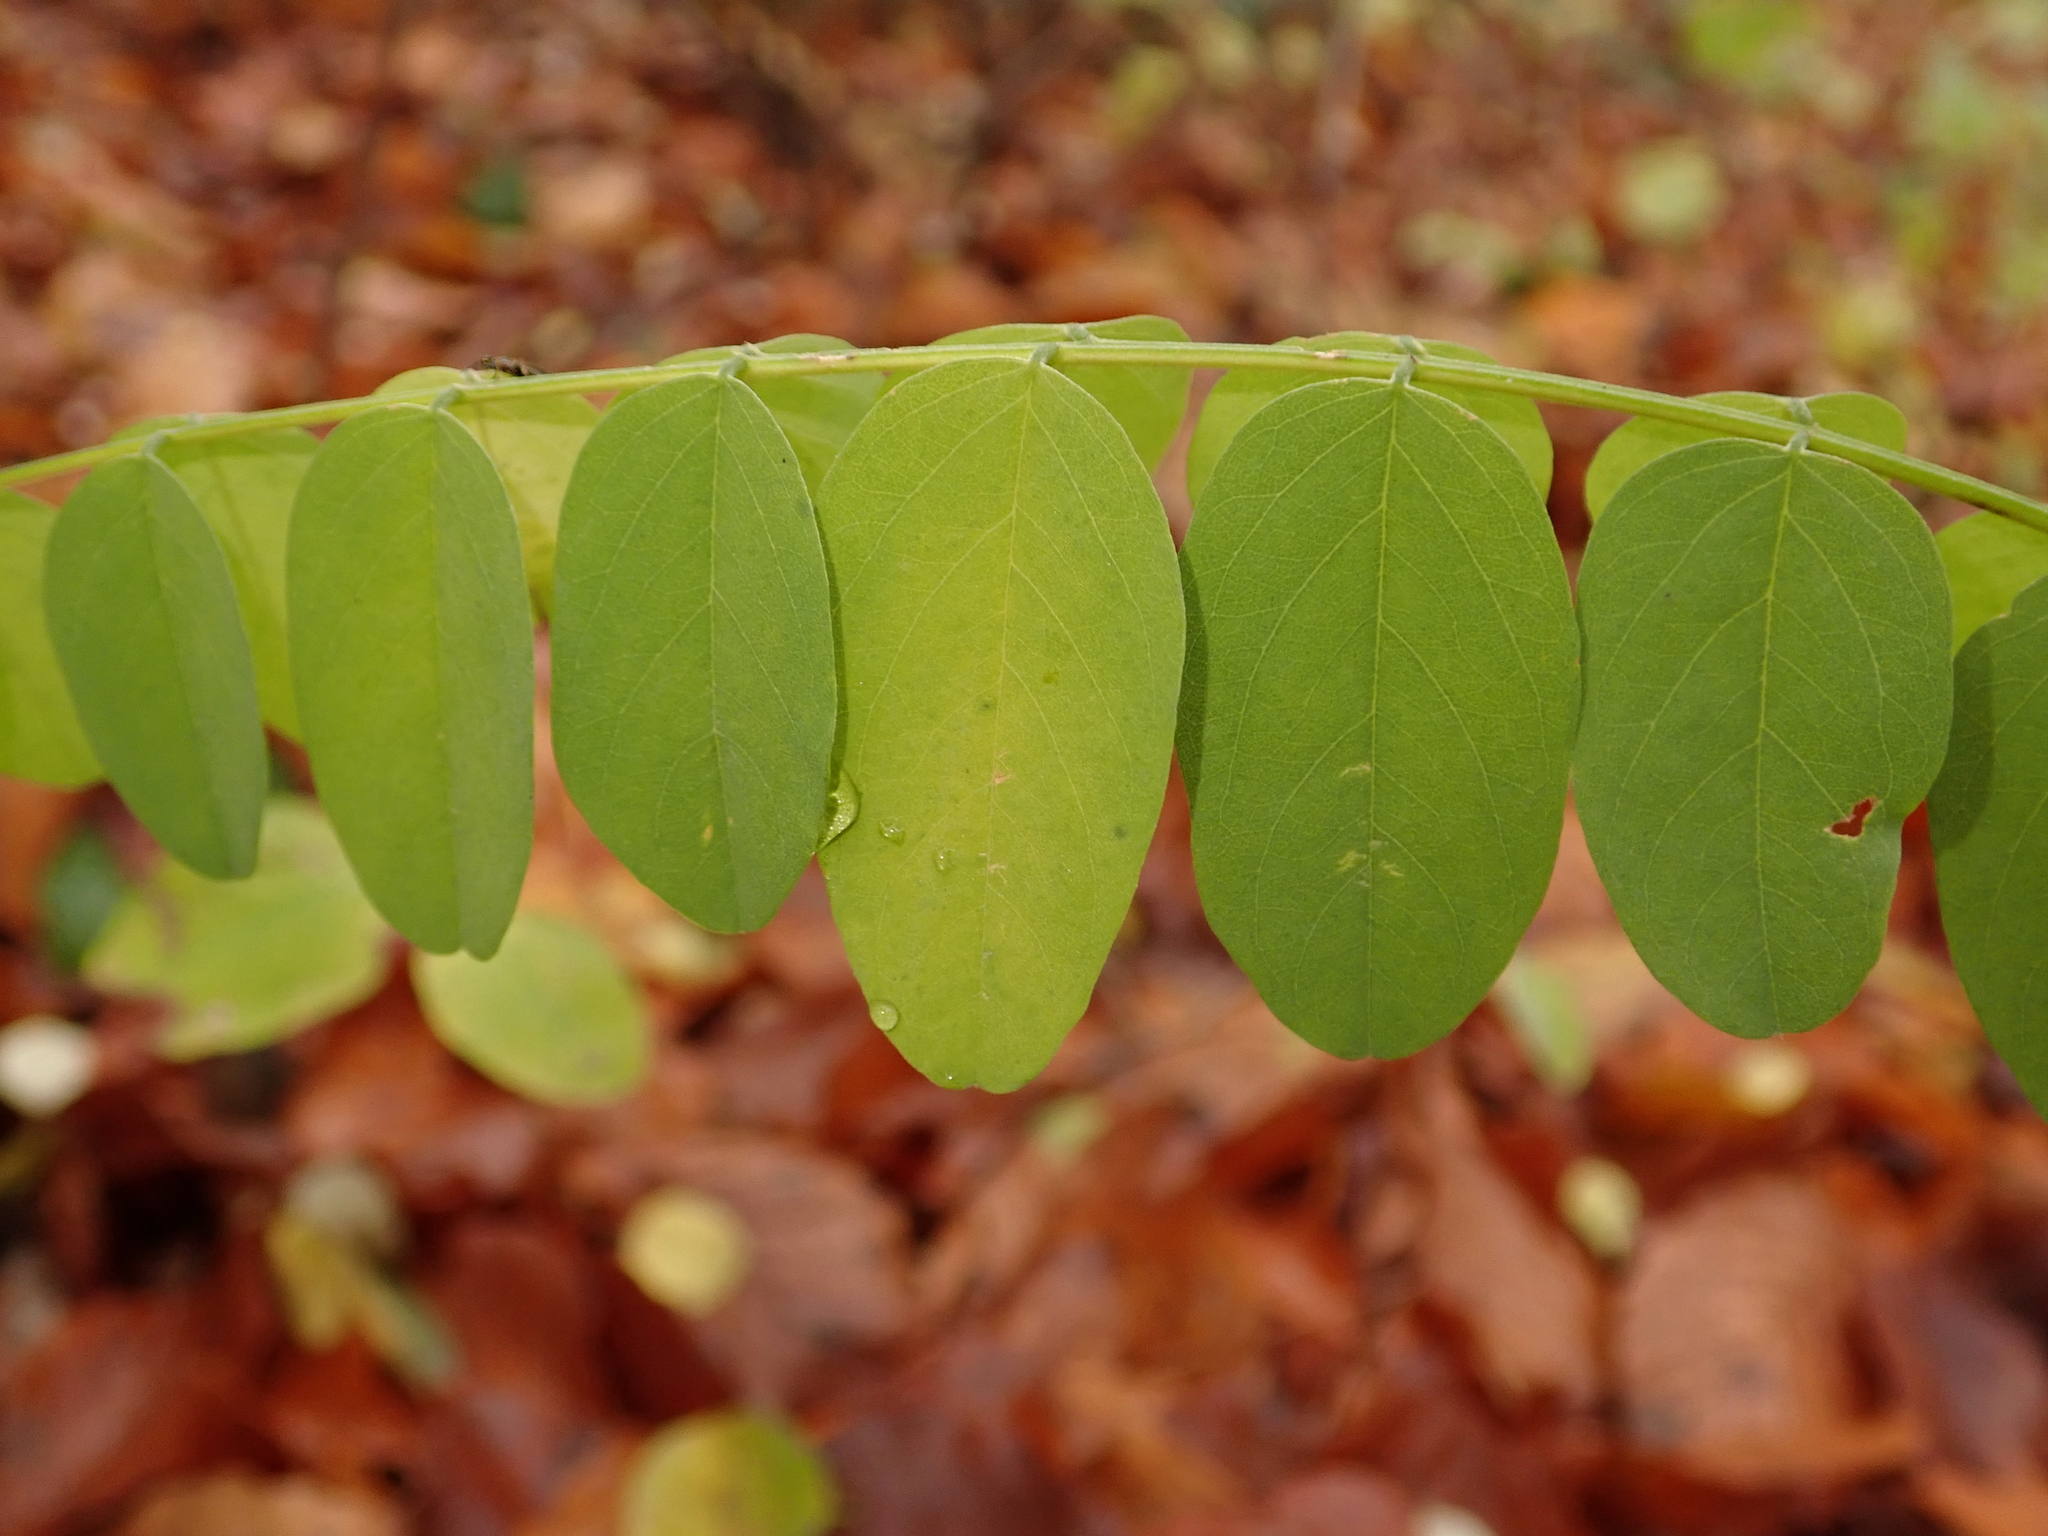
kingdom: Plantae
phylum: Tracheophyta
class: Magnoliopsida
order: Fabales
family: Fabaceae
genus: Robinia
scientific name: Robinia pseudoacacia
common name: Black locust
